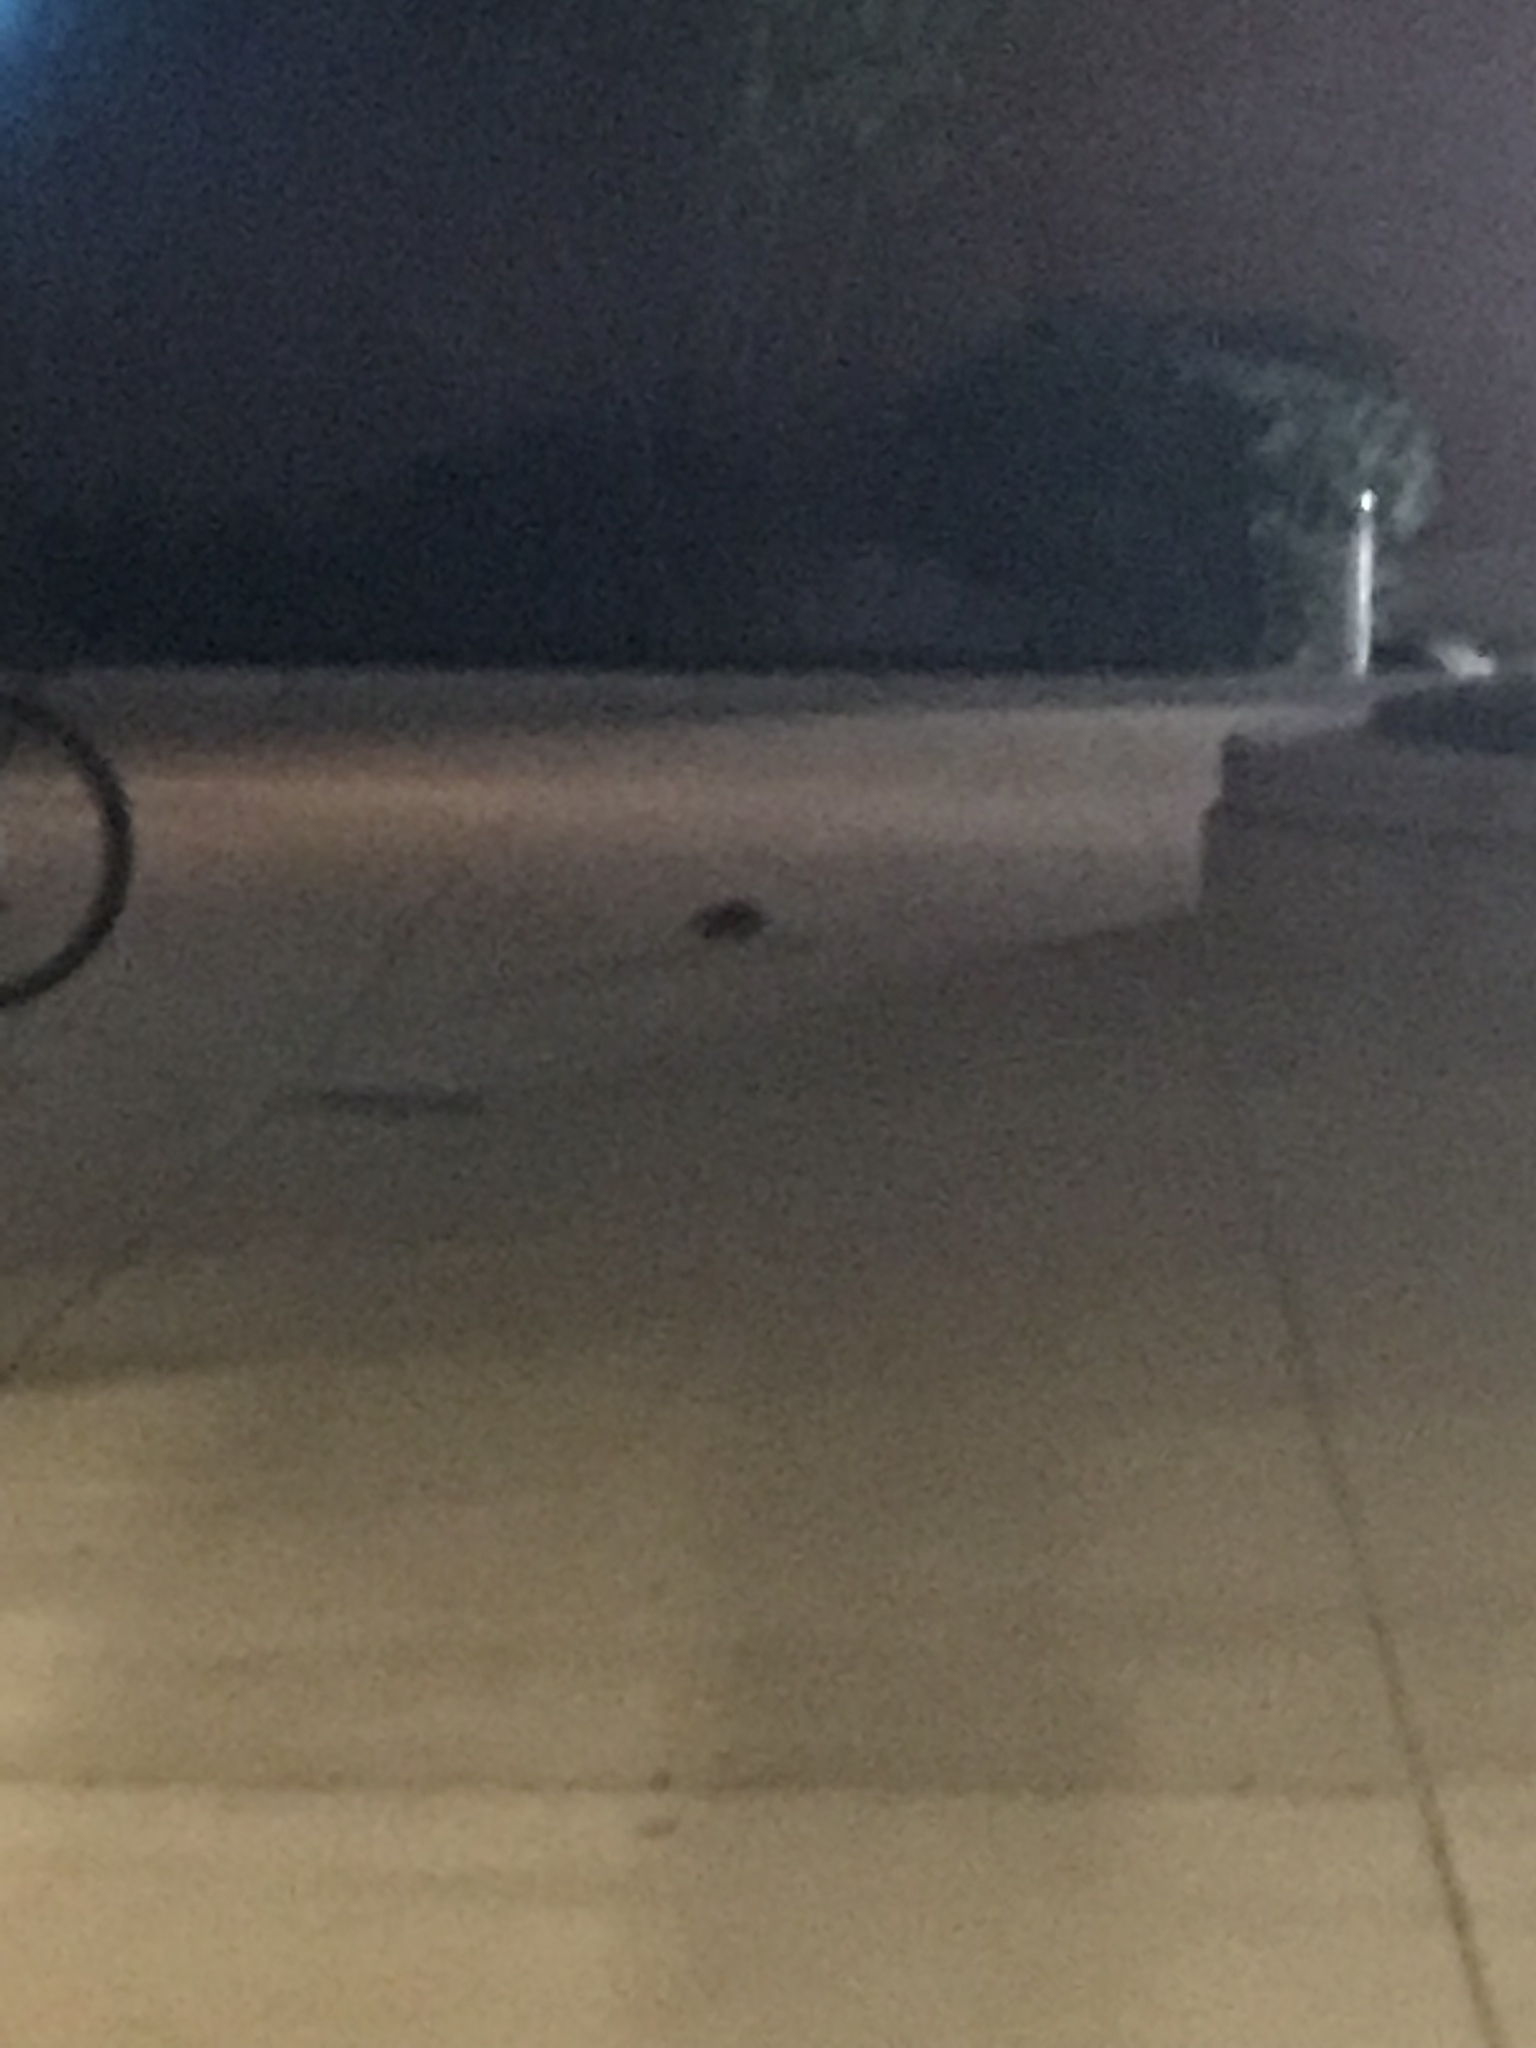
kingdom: Animalia
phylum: Chordata
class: Mammalia
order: Rodentia
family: Muridae
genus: Rattus
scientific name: Rattus norvegicus
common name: Brown rat
